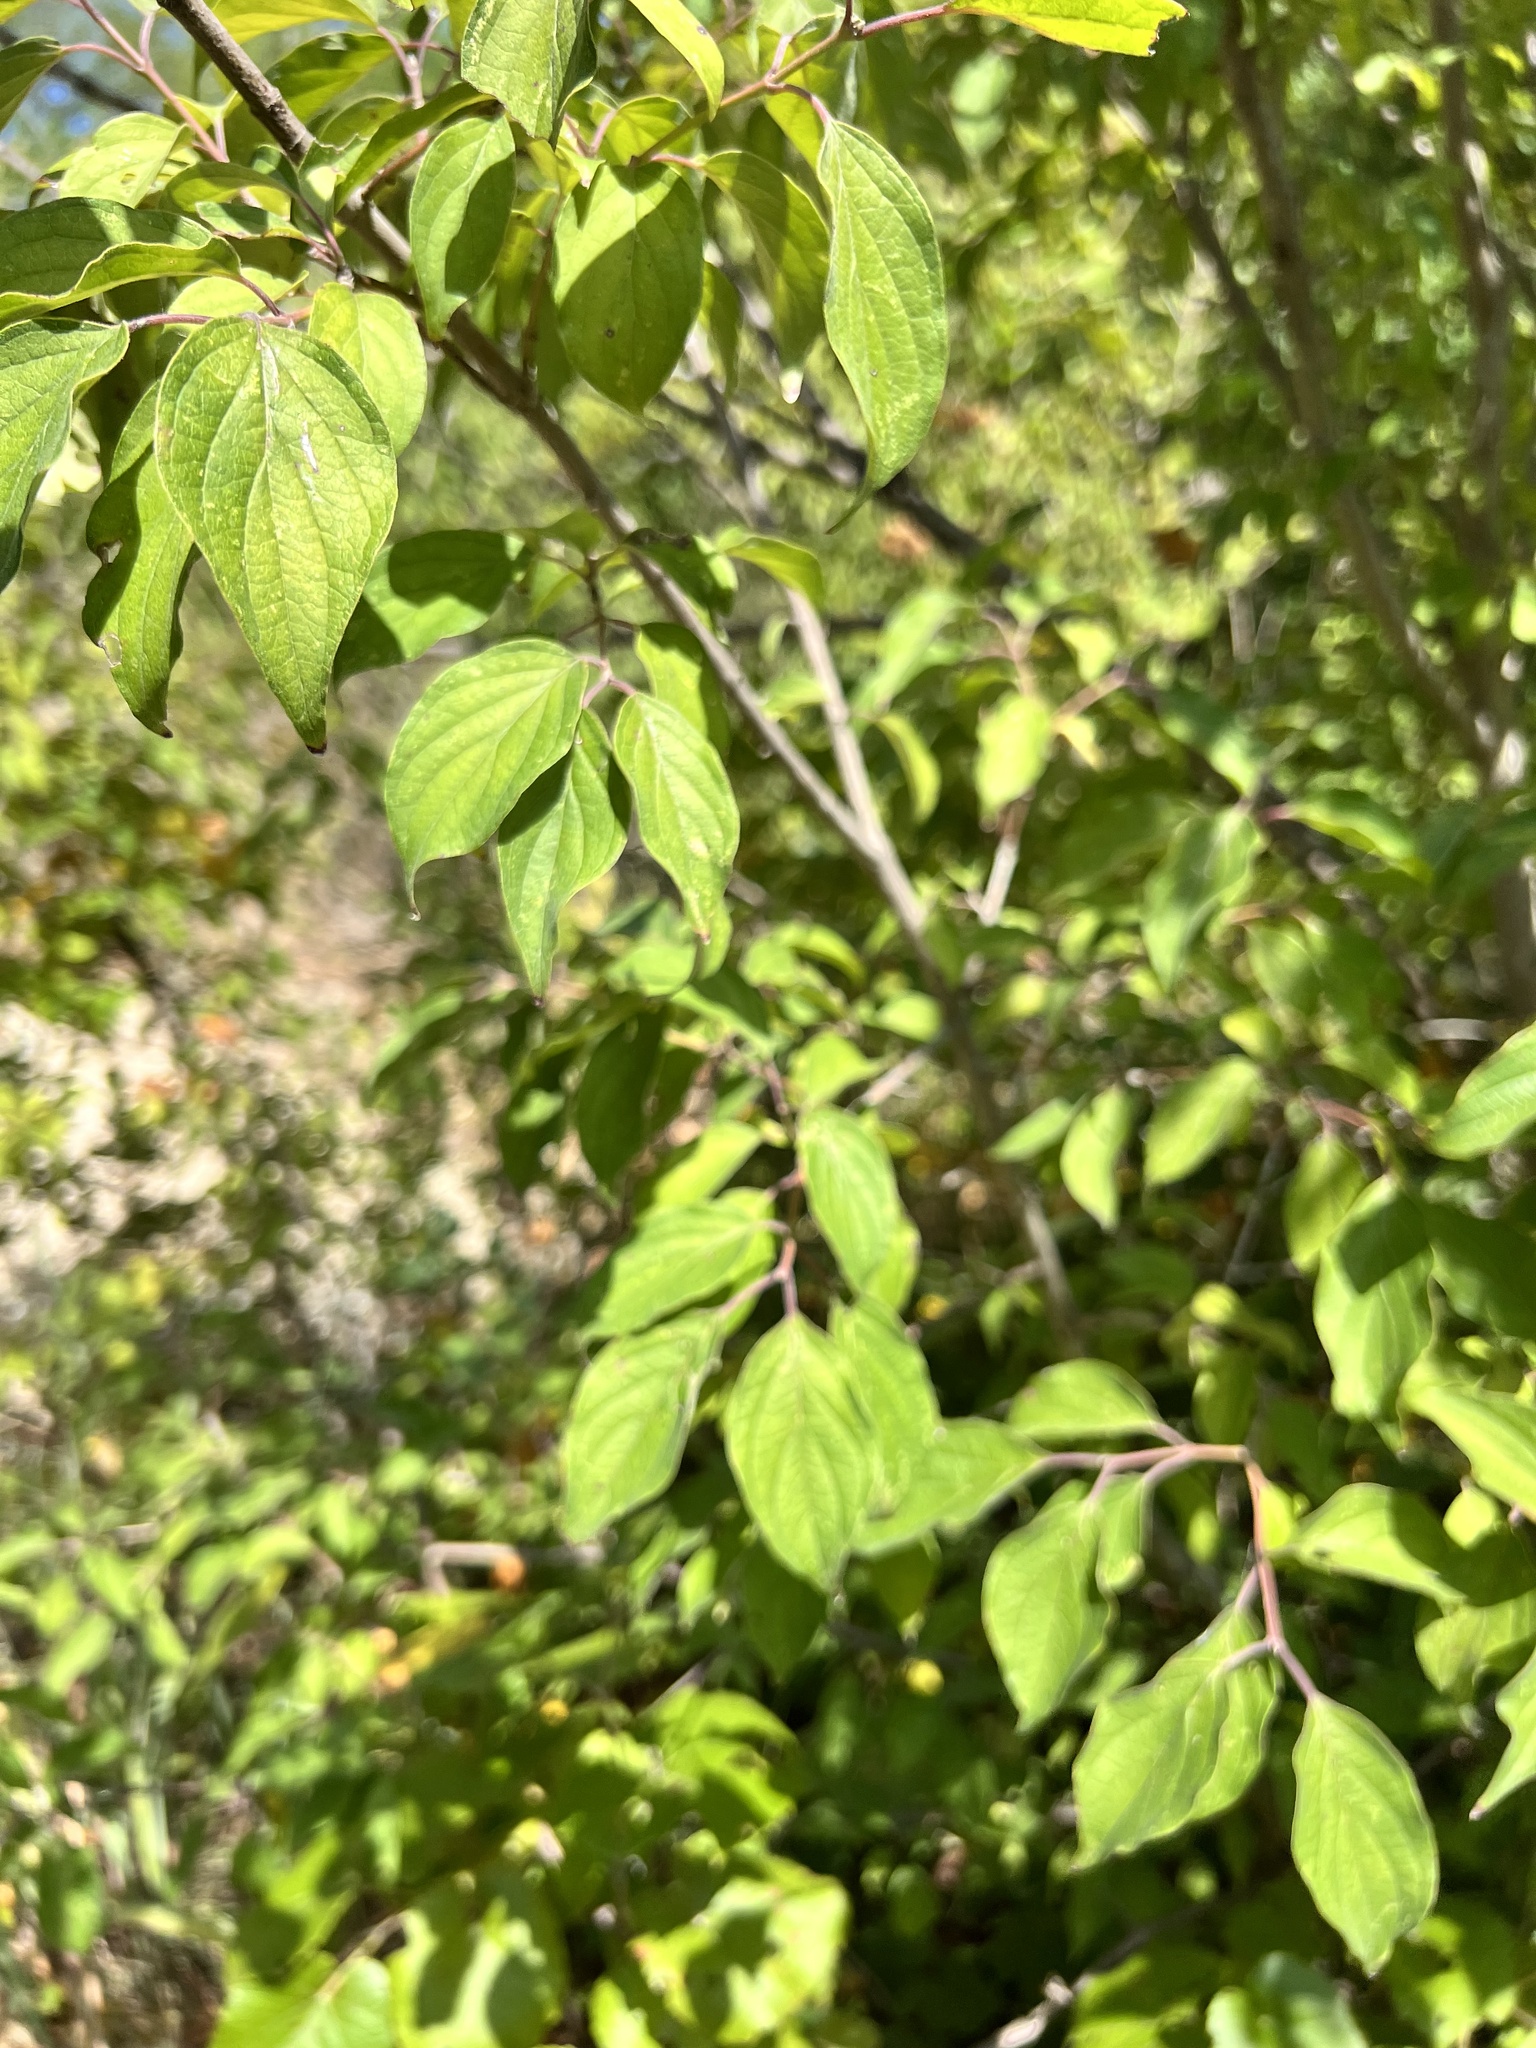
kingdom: Plantae
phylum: Tracheophyta
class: Magnoliopsida
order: Cornales
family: Cornaceae
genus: Cornus
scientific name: Cornus drummondii
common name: Rough-leaf dogwood
